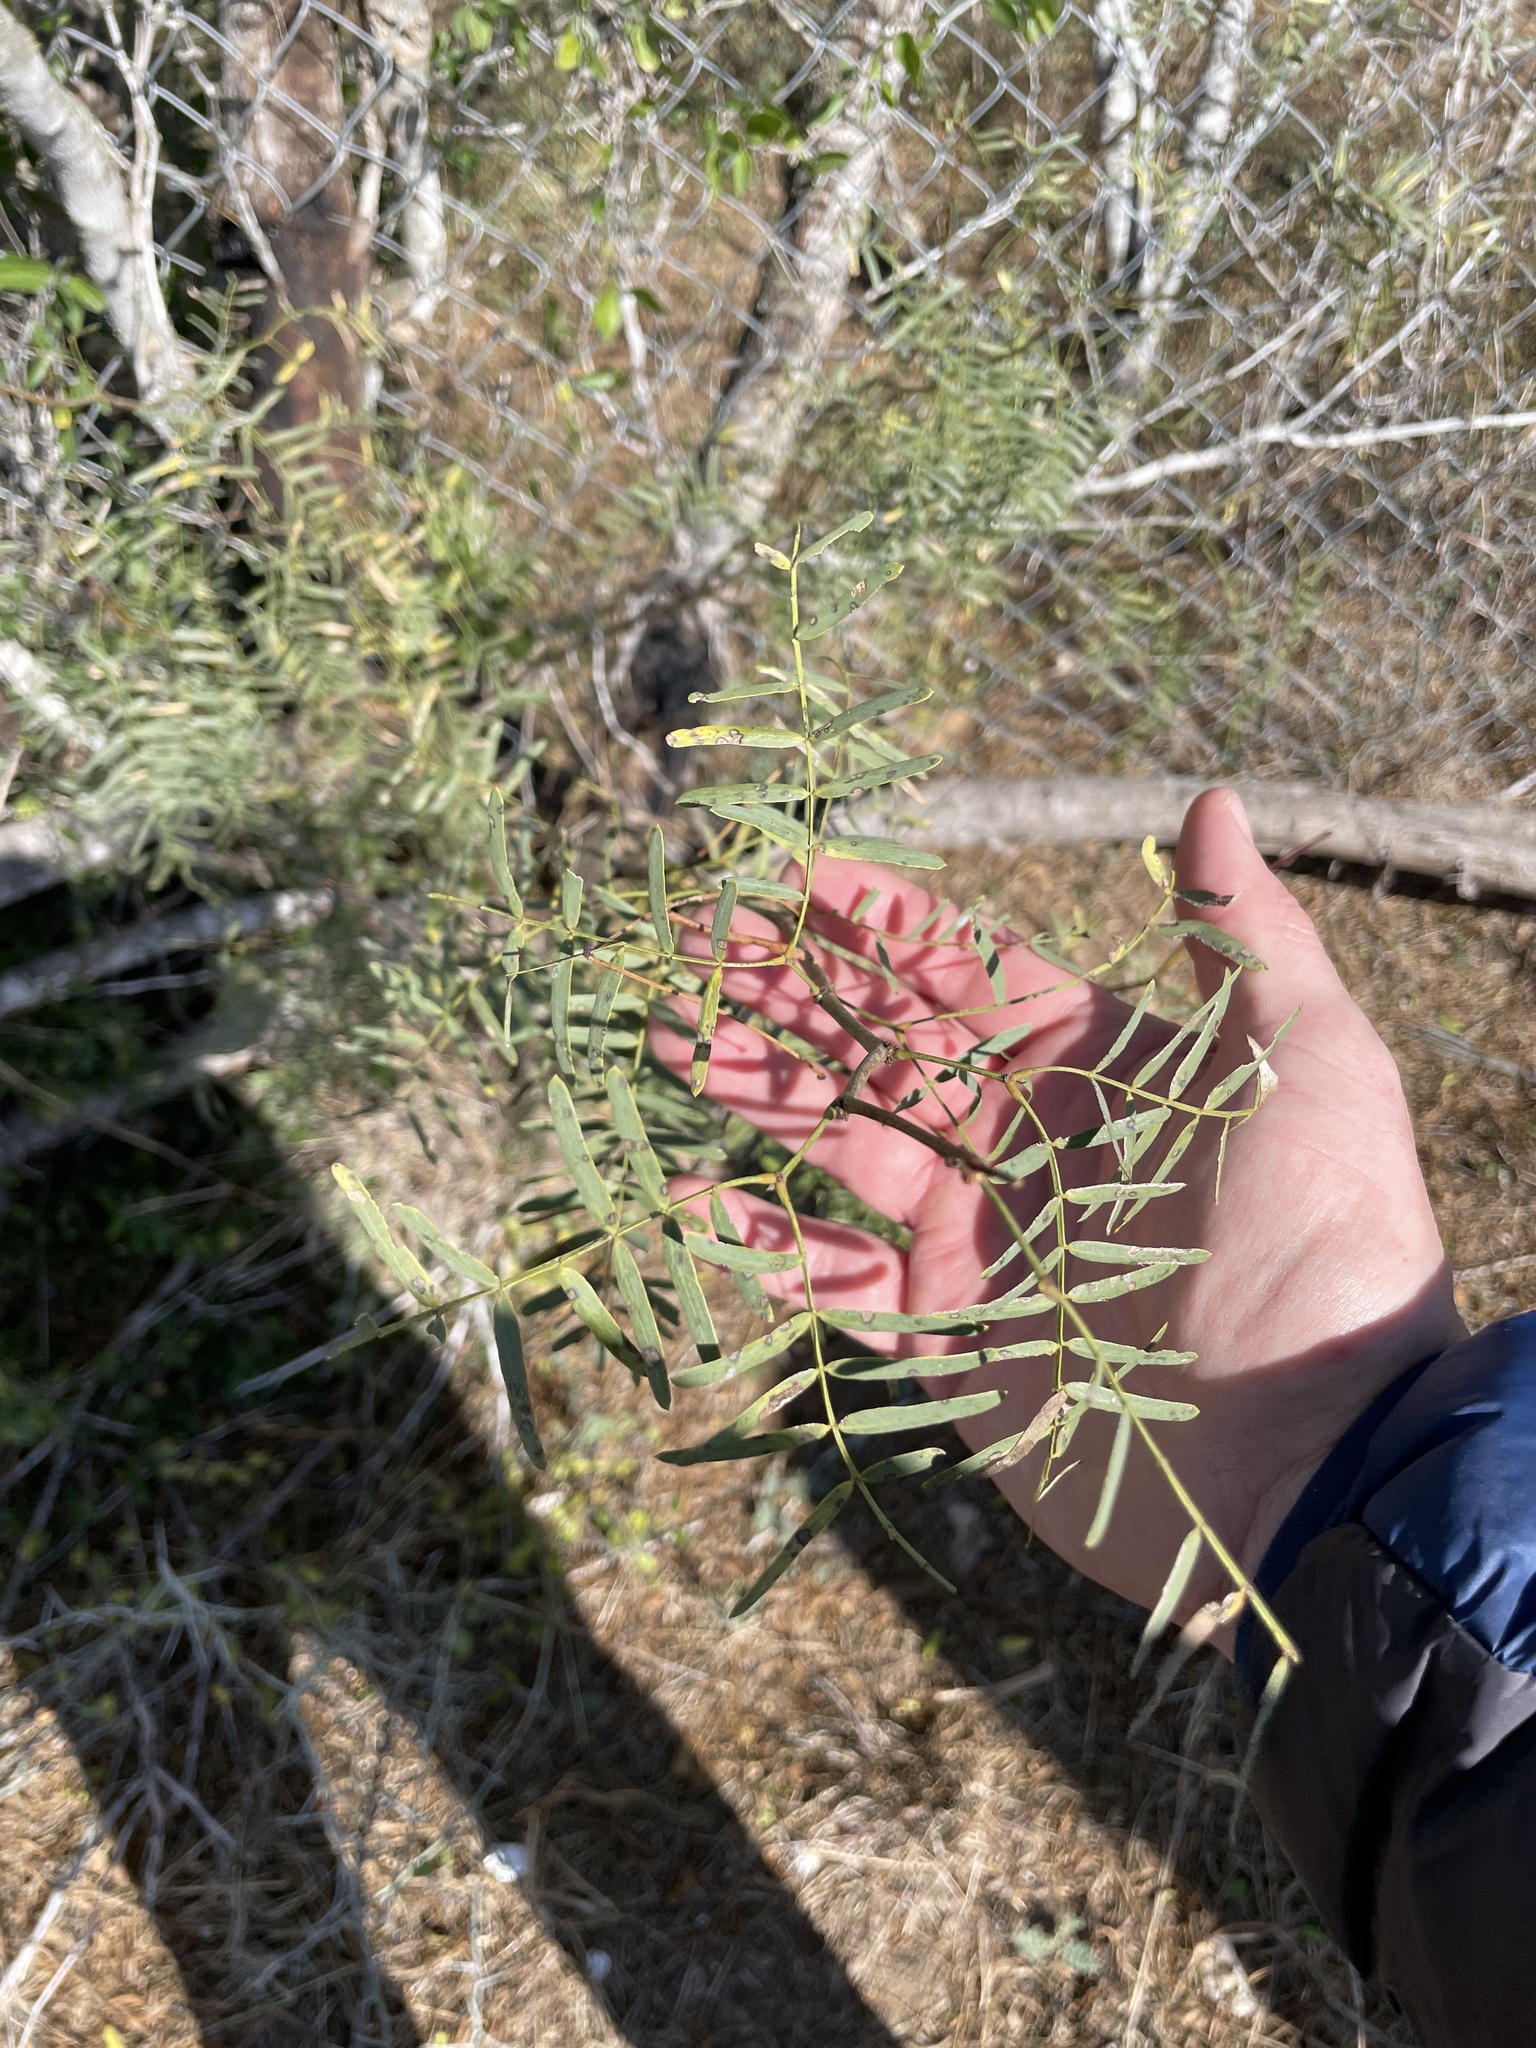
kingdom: Plantae
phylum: Tracheophyta
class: Magnoliopsida
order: Fabales
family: Fabaceae
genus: Prosopis
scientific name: Prosopis glandulosa
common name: Honey mesquite
